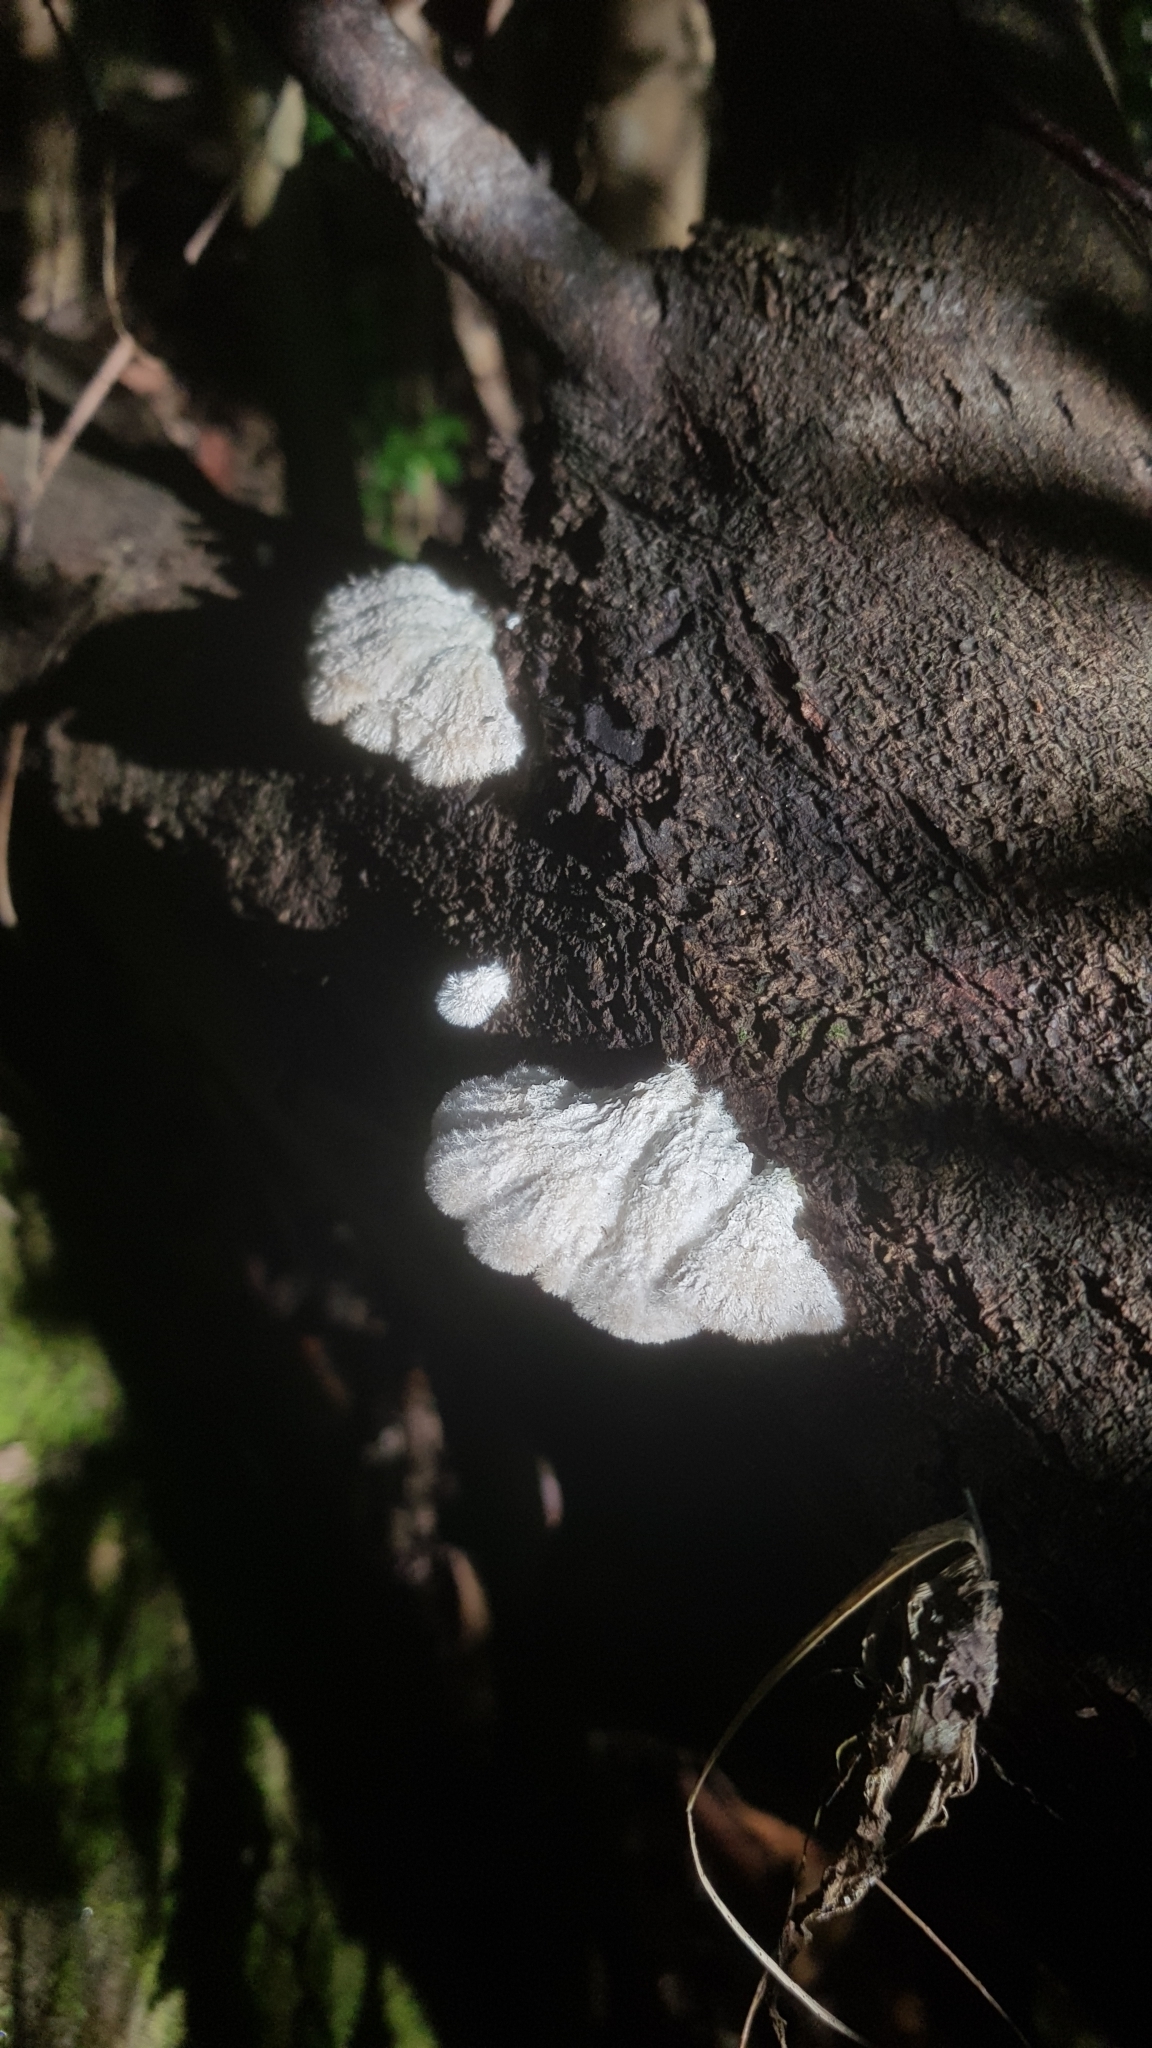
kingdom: Fungi
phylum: Basidiomycota
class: Agaricomycetes
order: Agaricales
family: Schizophyllaceae
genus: Schizophyllum
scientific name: Schizophyllum commune
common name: Common porecrust
